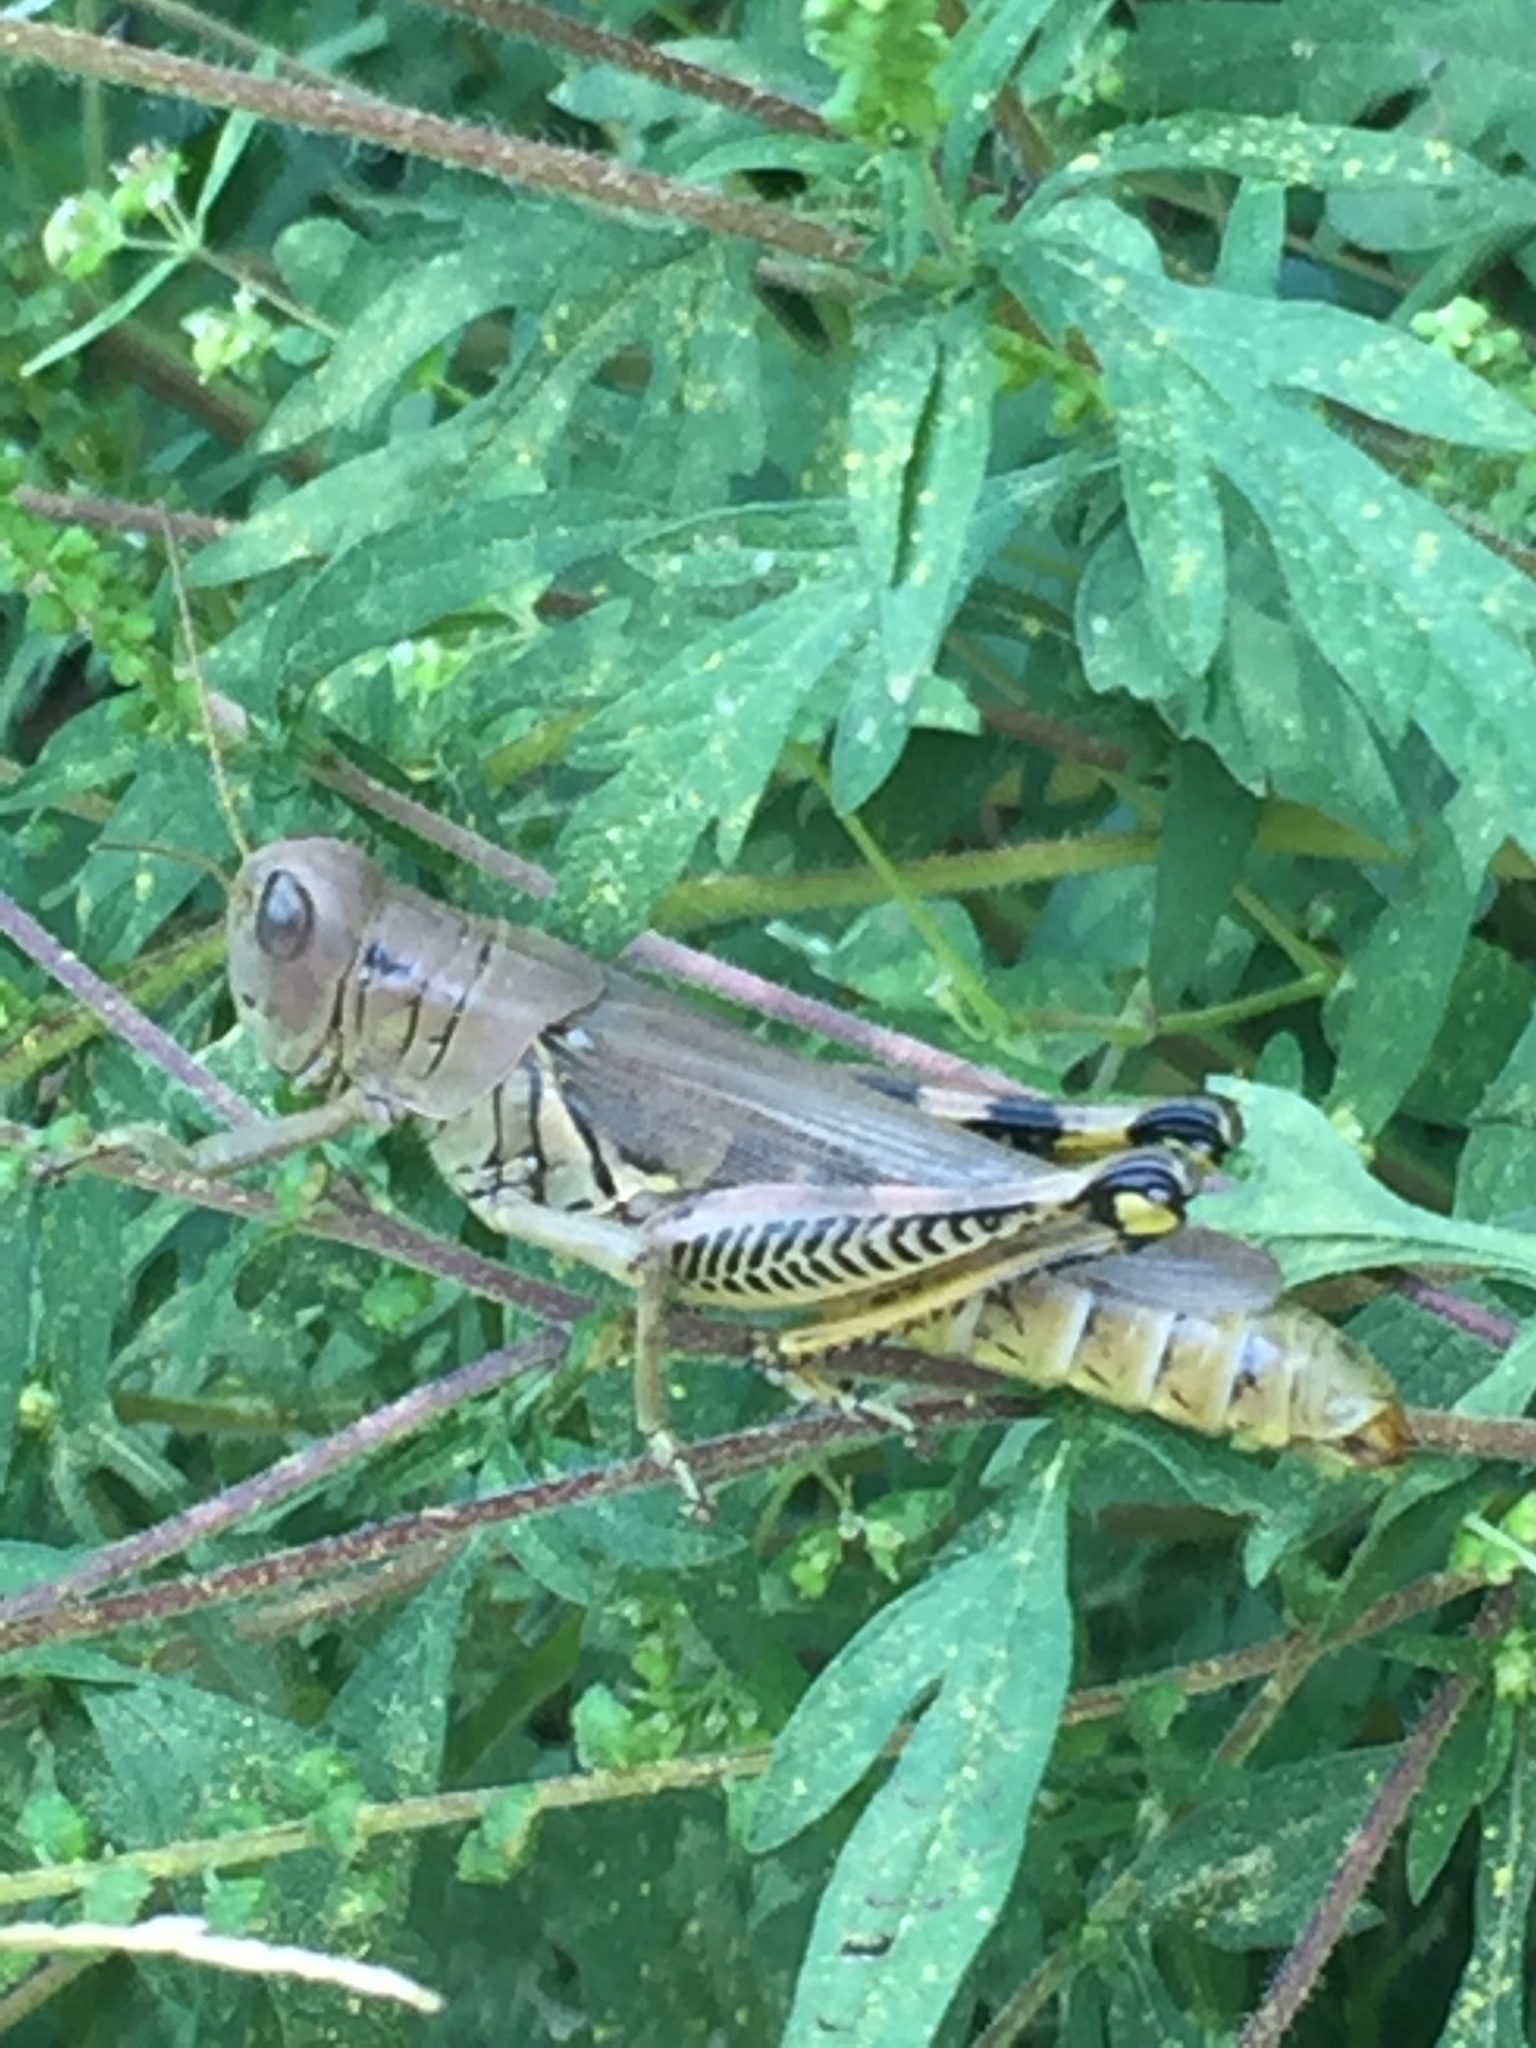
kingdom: Animalia
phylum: Arthropoda
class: Insecta
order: Orthoptera
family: Acrididae
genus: Melanoplus
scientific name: Melanoplus differentialis
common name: Differential grasshopper
